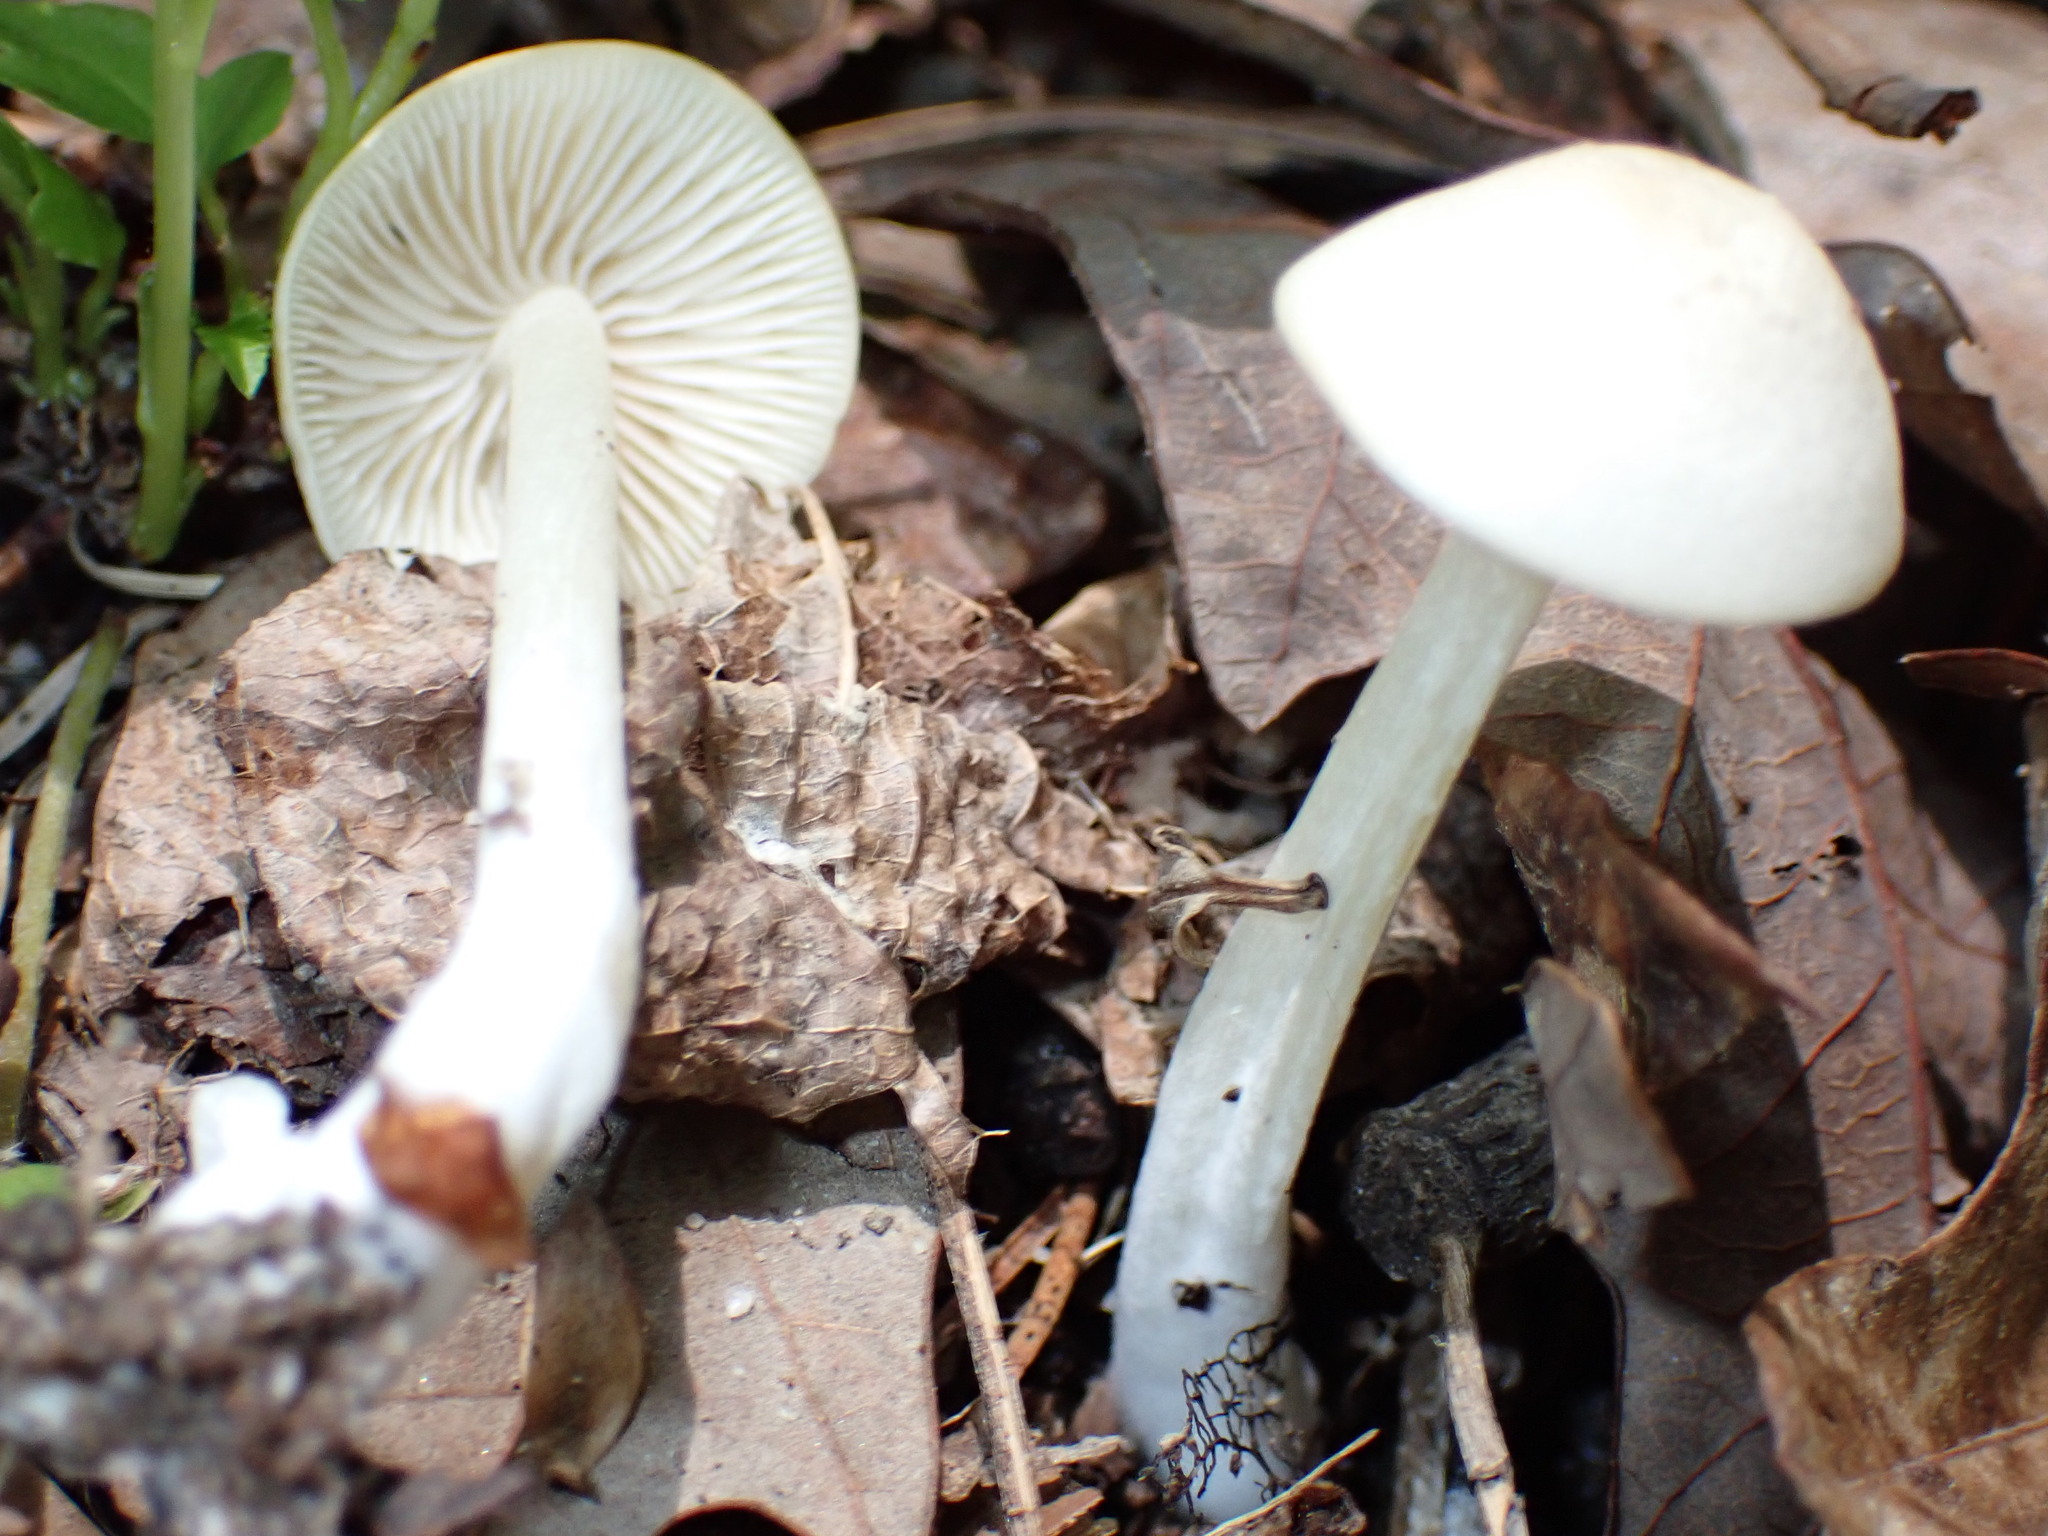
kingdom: Fungi
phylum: Basidiomycota
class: Agaricomycetes
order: Agaricales
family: Hygrophoraceae
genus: Cuphophyllus
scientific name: Cuphophyllus virgineus
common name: Snowy waxcap
